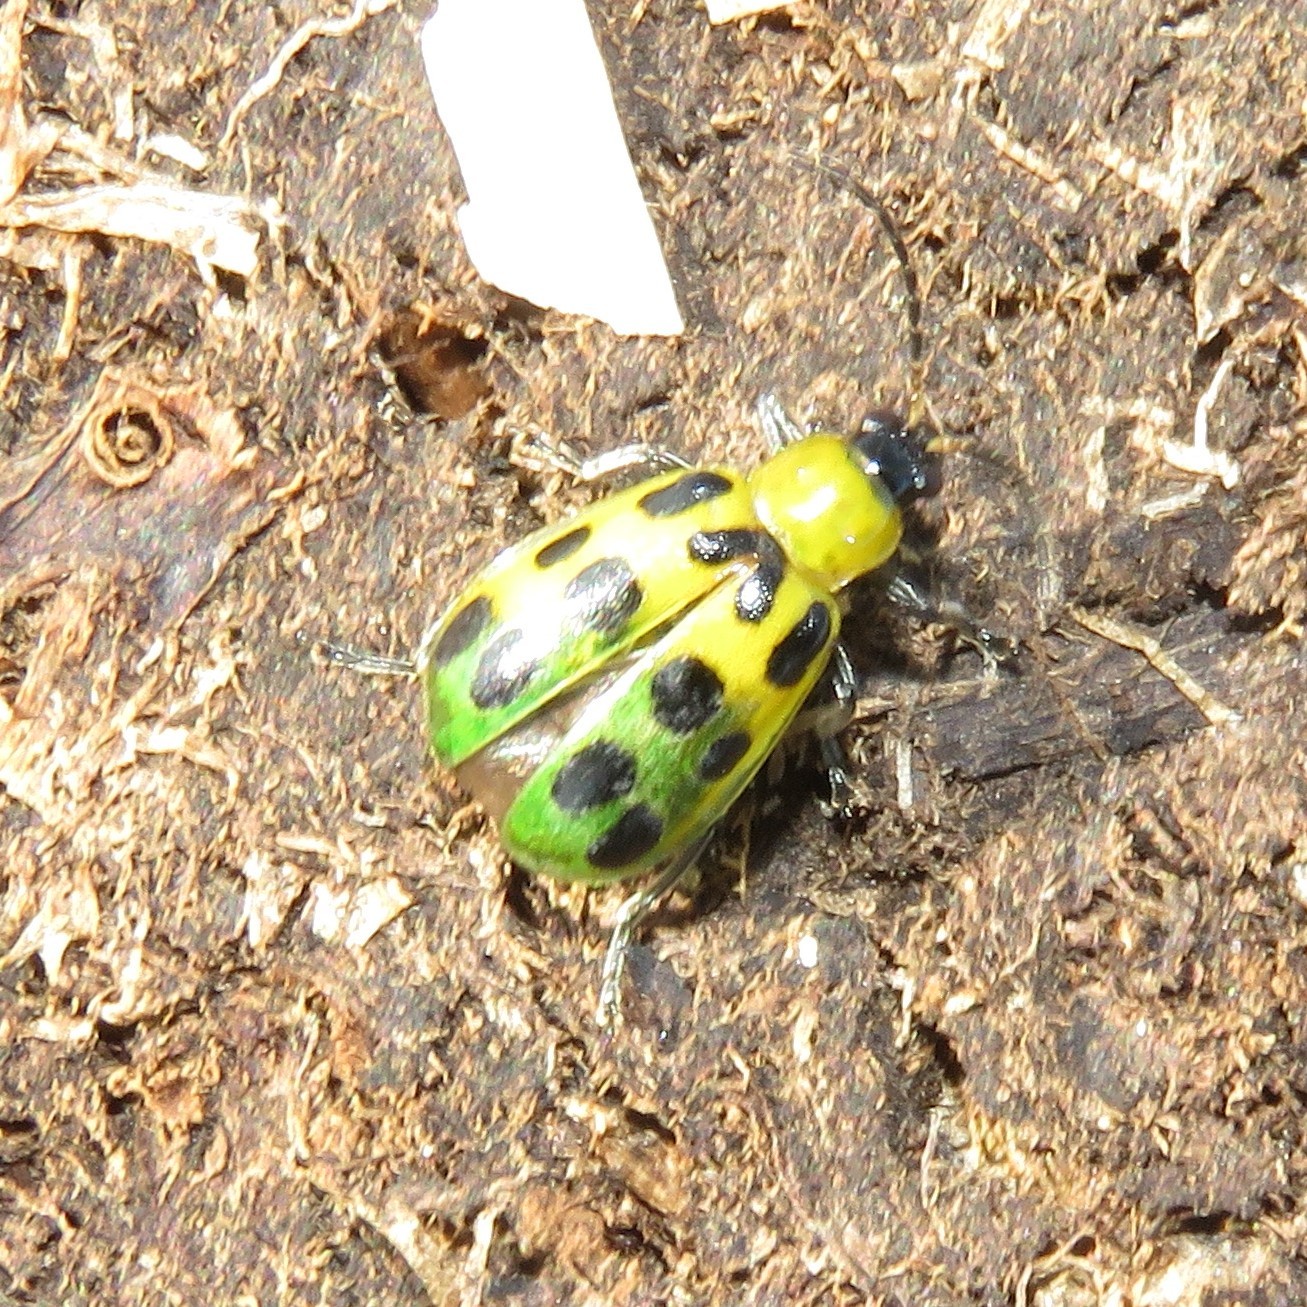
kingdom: Animalia
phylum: Arthropoda
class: Insecta
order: Coleoptera
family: Chrysomelidae
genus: Diabrotica
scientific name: Diabrotica undecimpunctata
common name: Spotted cucumber beetle
